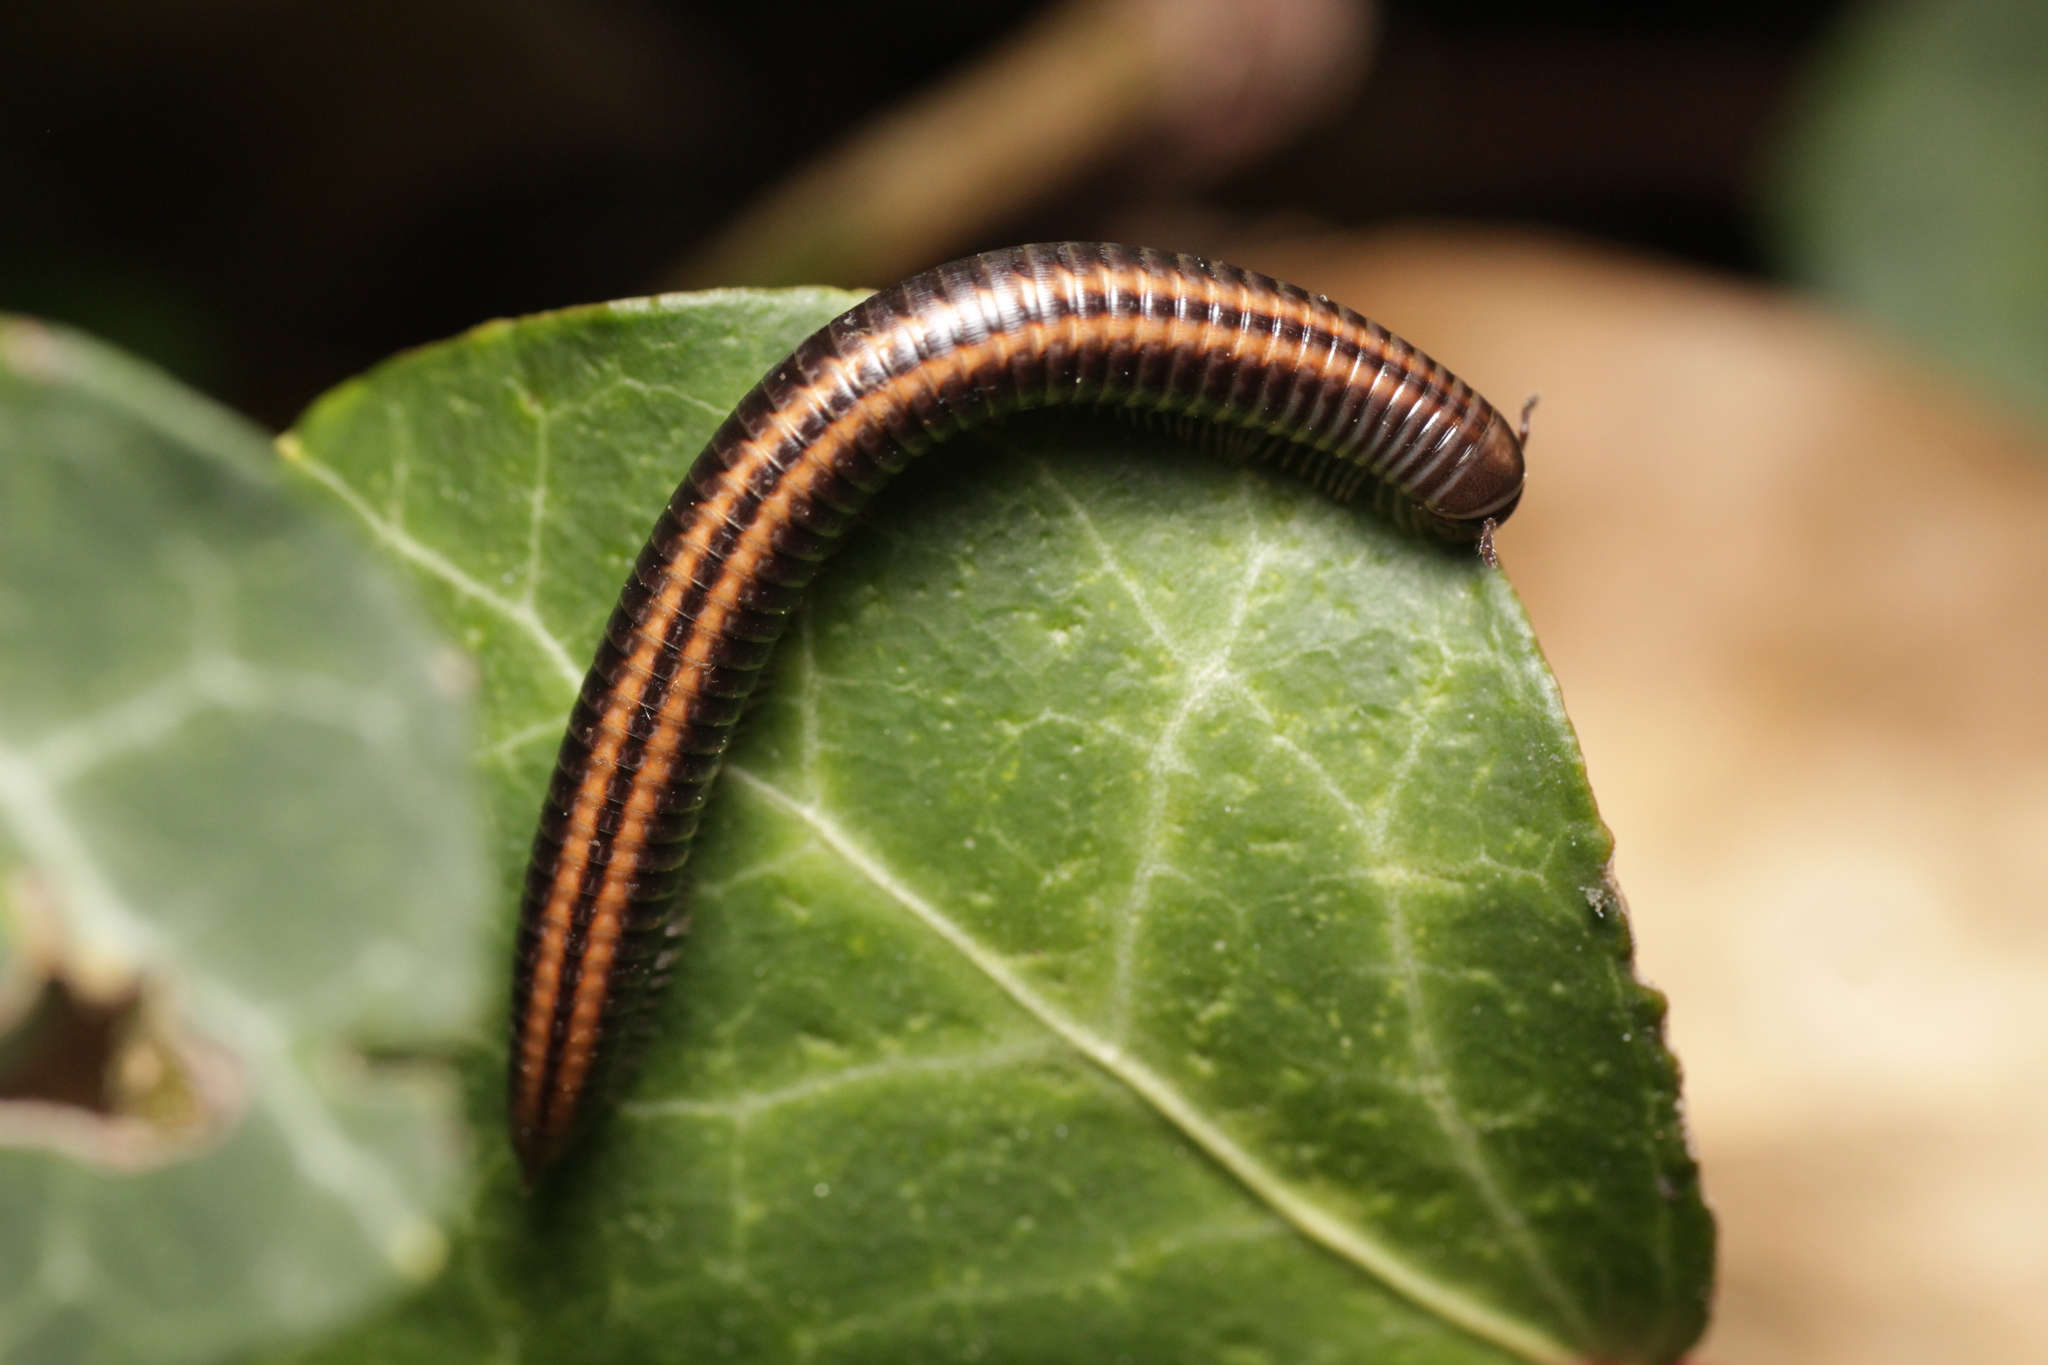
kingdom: Animalia
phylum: Arthropoda
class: Diplopoda
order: Julida
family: Julidae
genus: Ommatoiulus
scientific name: Ommatoiulus sabulosus
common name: Striped millipede
